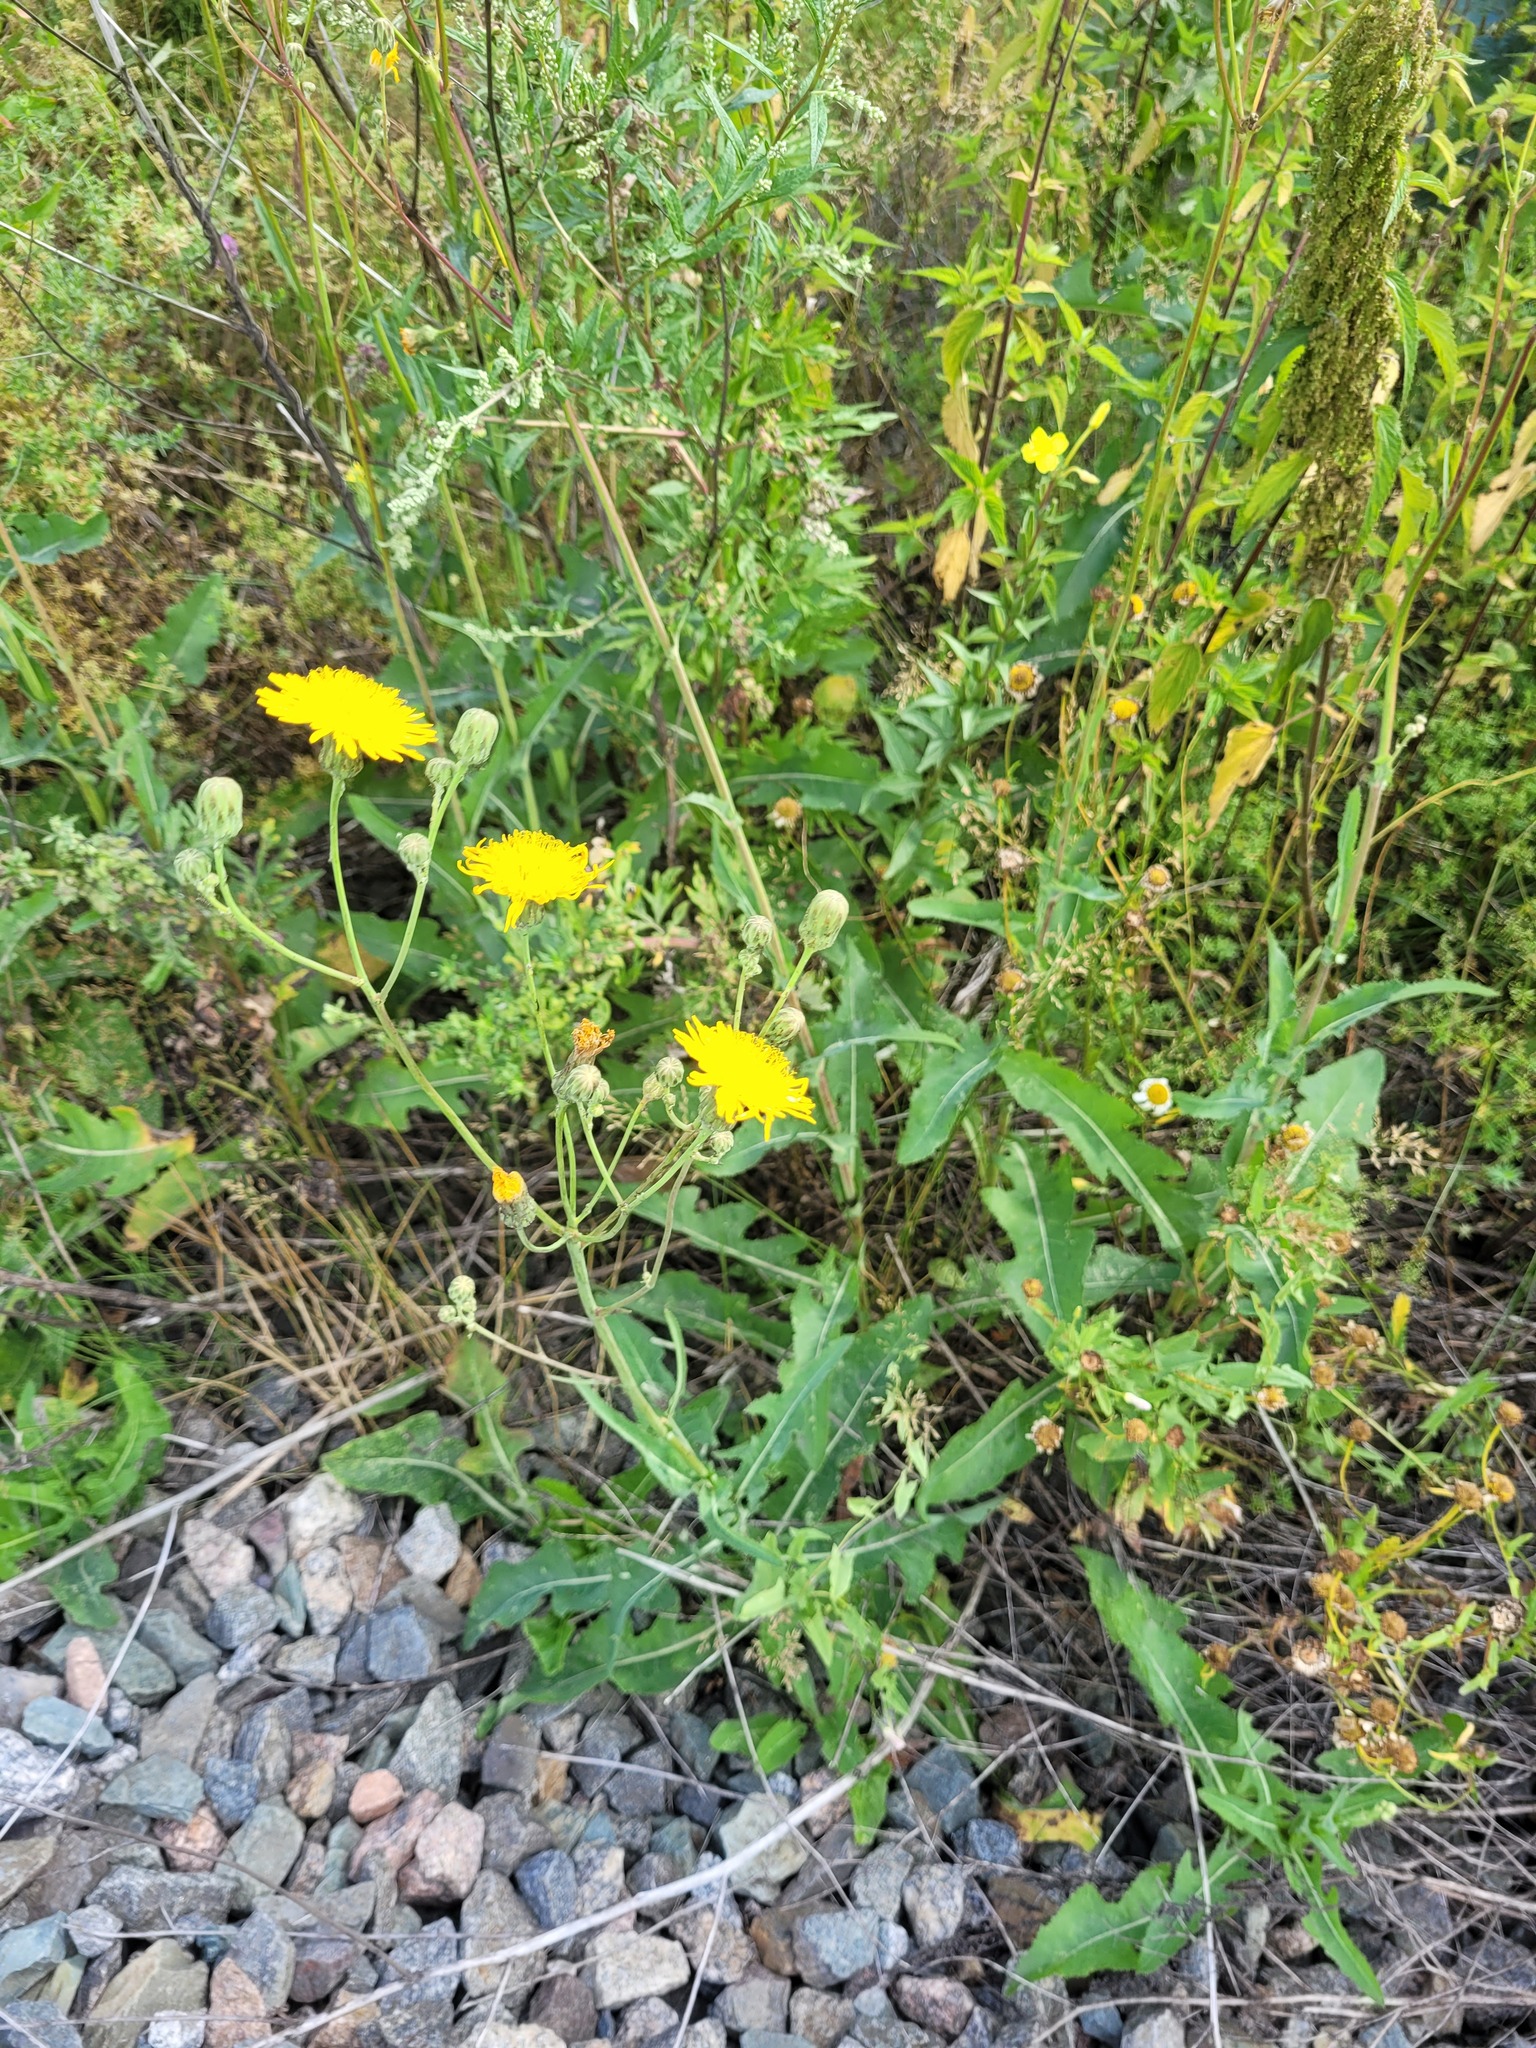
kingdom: Plantae
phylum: Tracheophyta
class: Magnoliopsida
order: Asterales
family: Asteraceae
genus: Sonchus
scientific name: Sonchus arvensis
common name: Perennial sow-thistle
